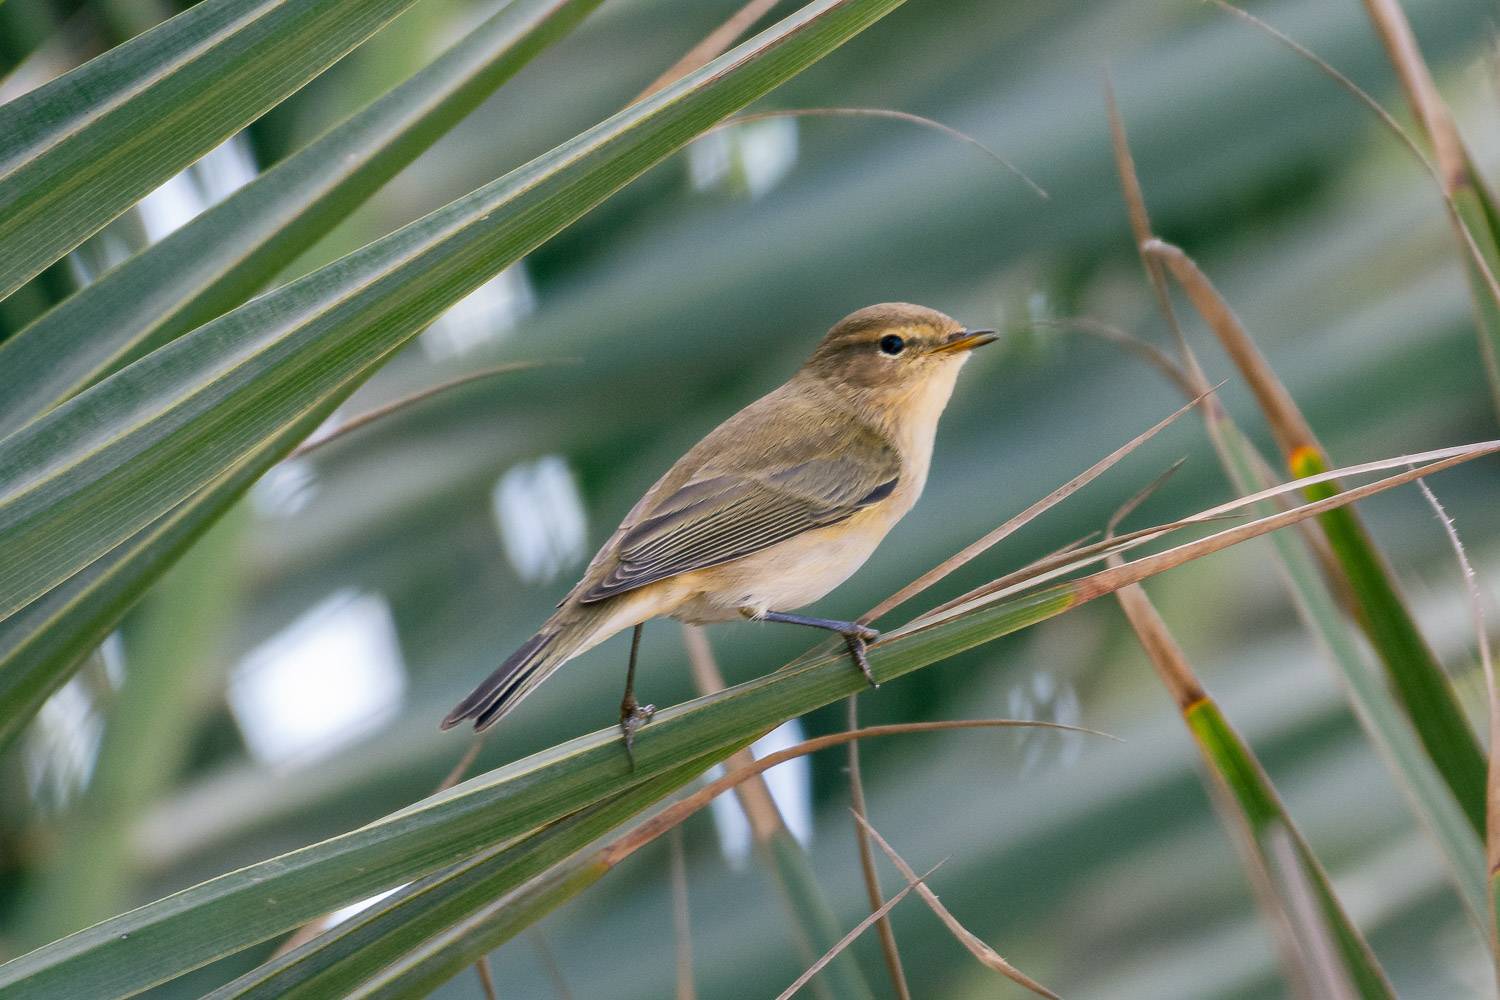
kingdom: Animalia
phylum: Chordata
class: Aves
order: Passeriformes
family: Phylloscopidae
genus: Phylloscopus
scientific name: Phylloscopus collybita
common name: Common chiffchaff
